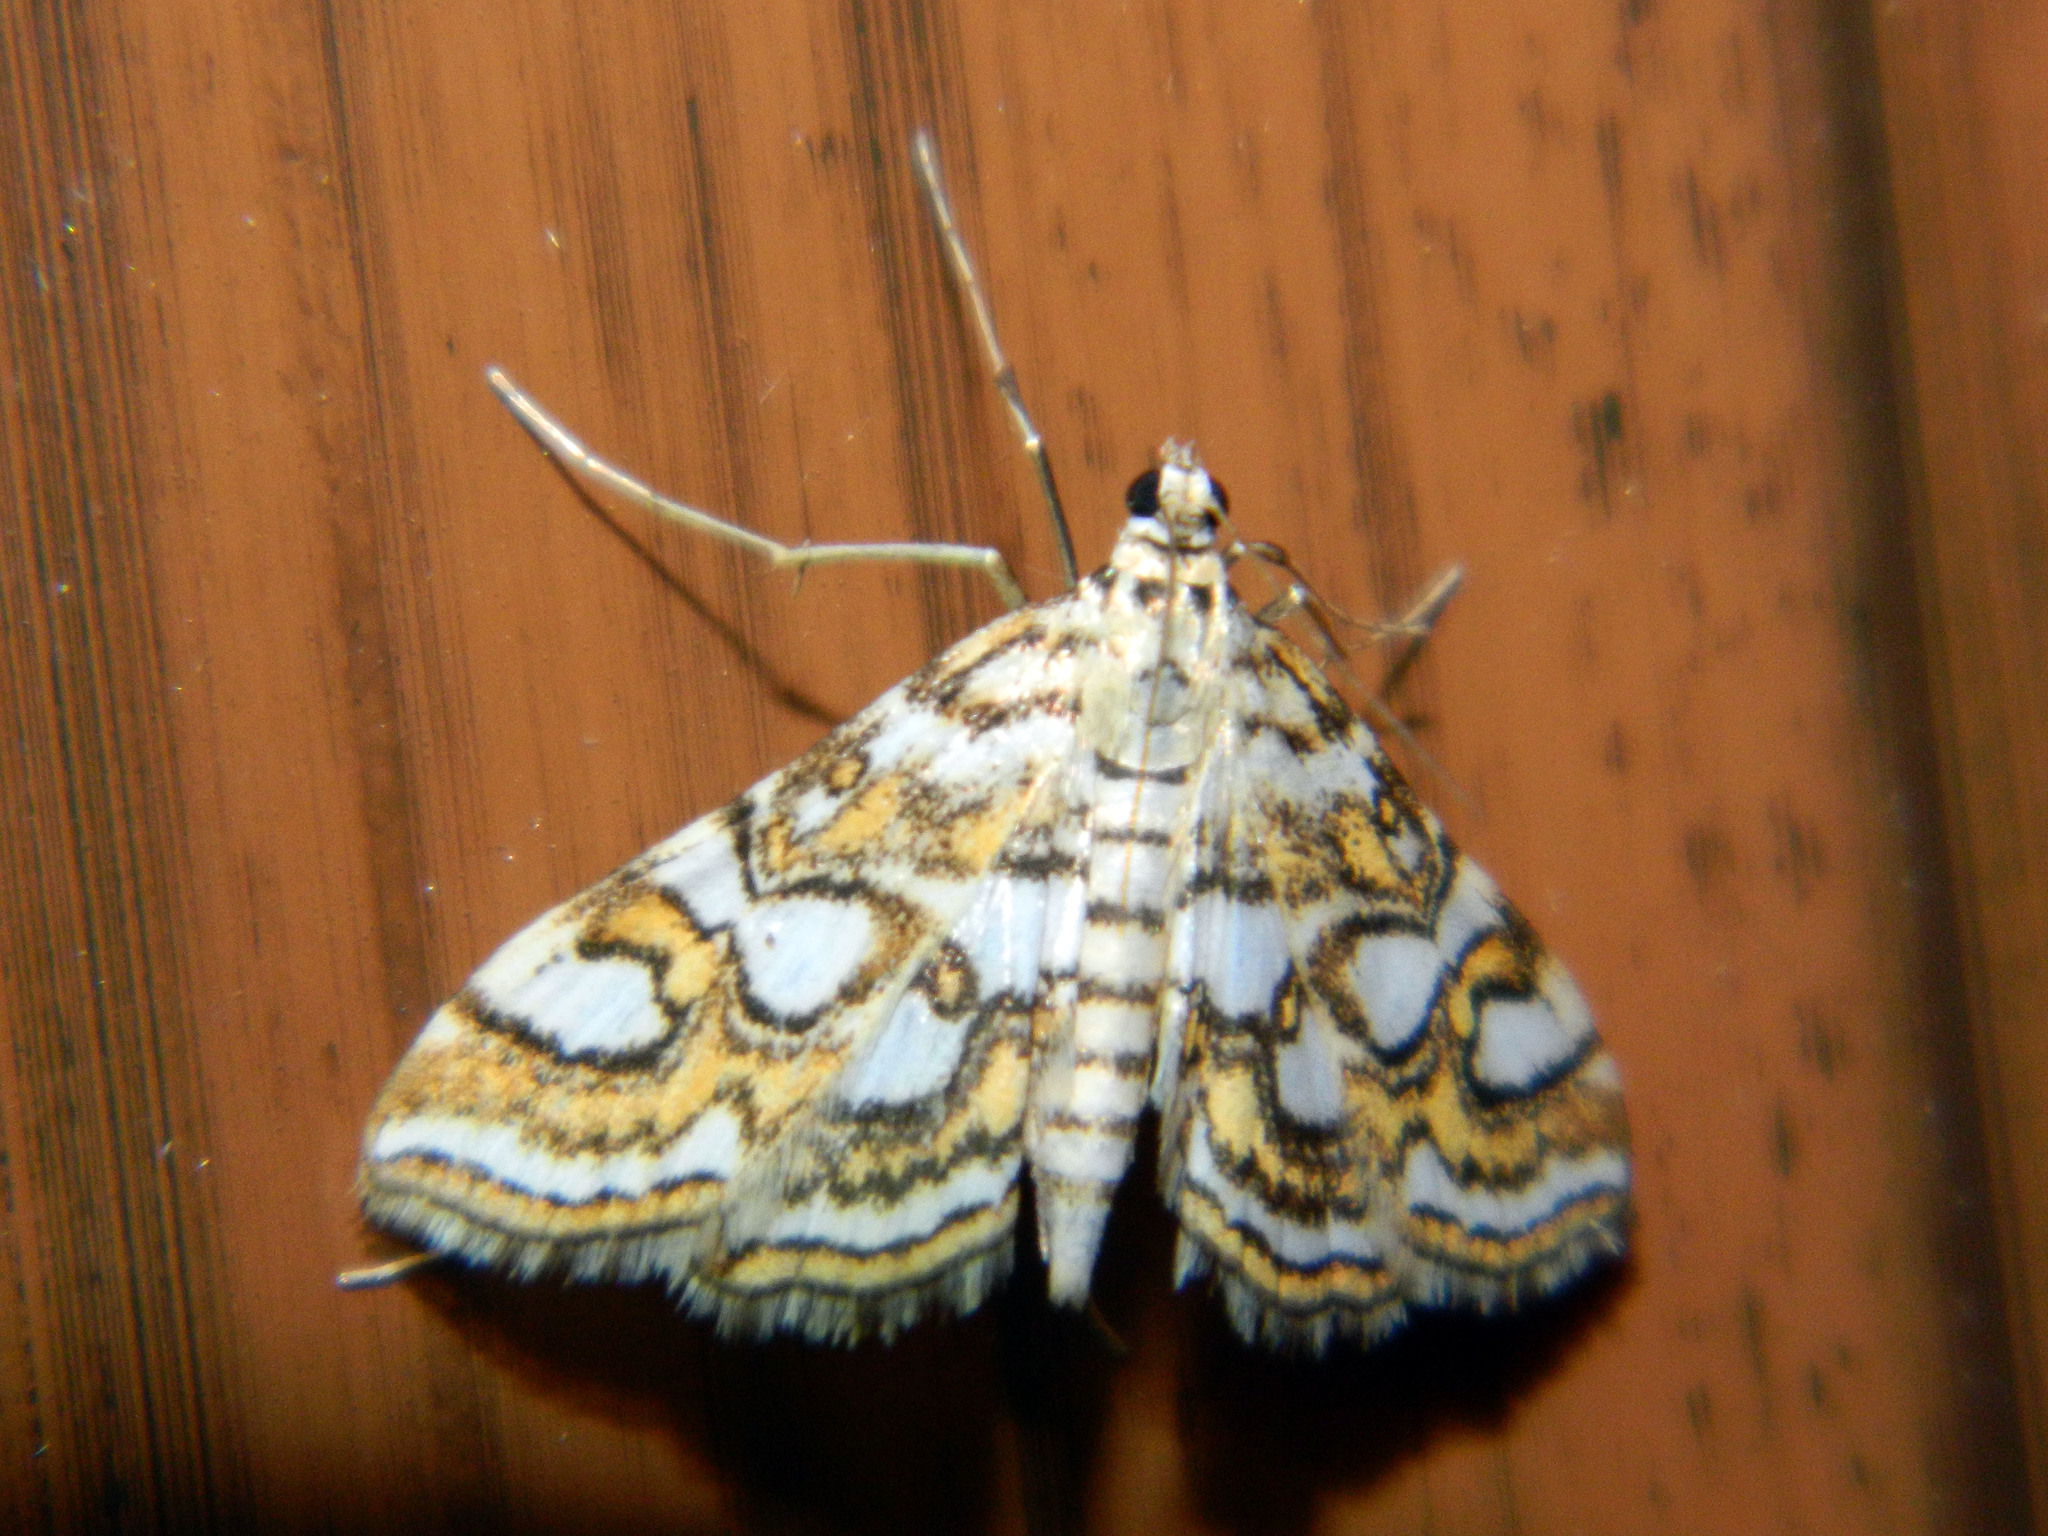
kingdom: Animalia
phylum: Arthropoda
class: Insecta
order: Lepidoptera
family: Crambidae
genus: Elophila
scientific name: Elophila ekthlipsis
